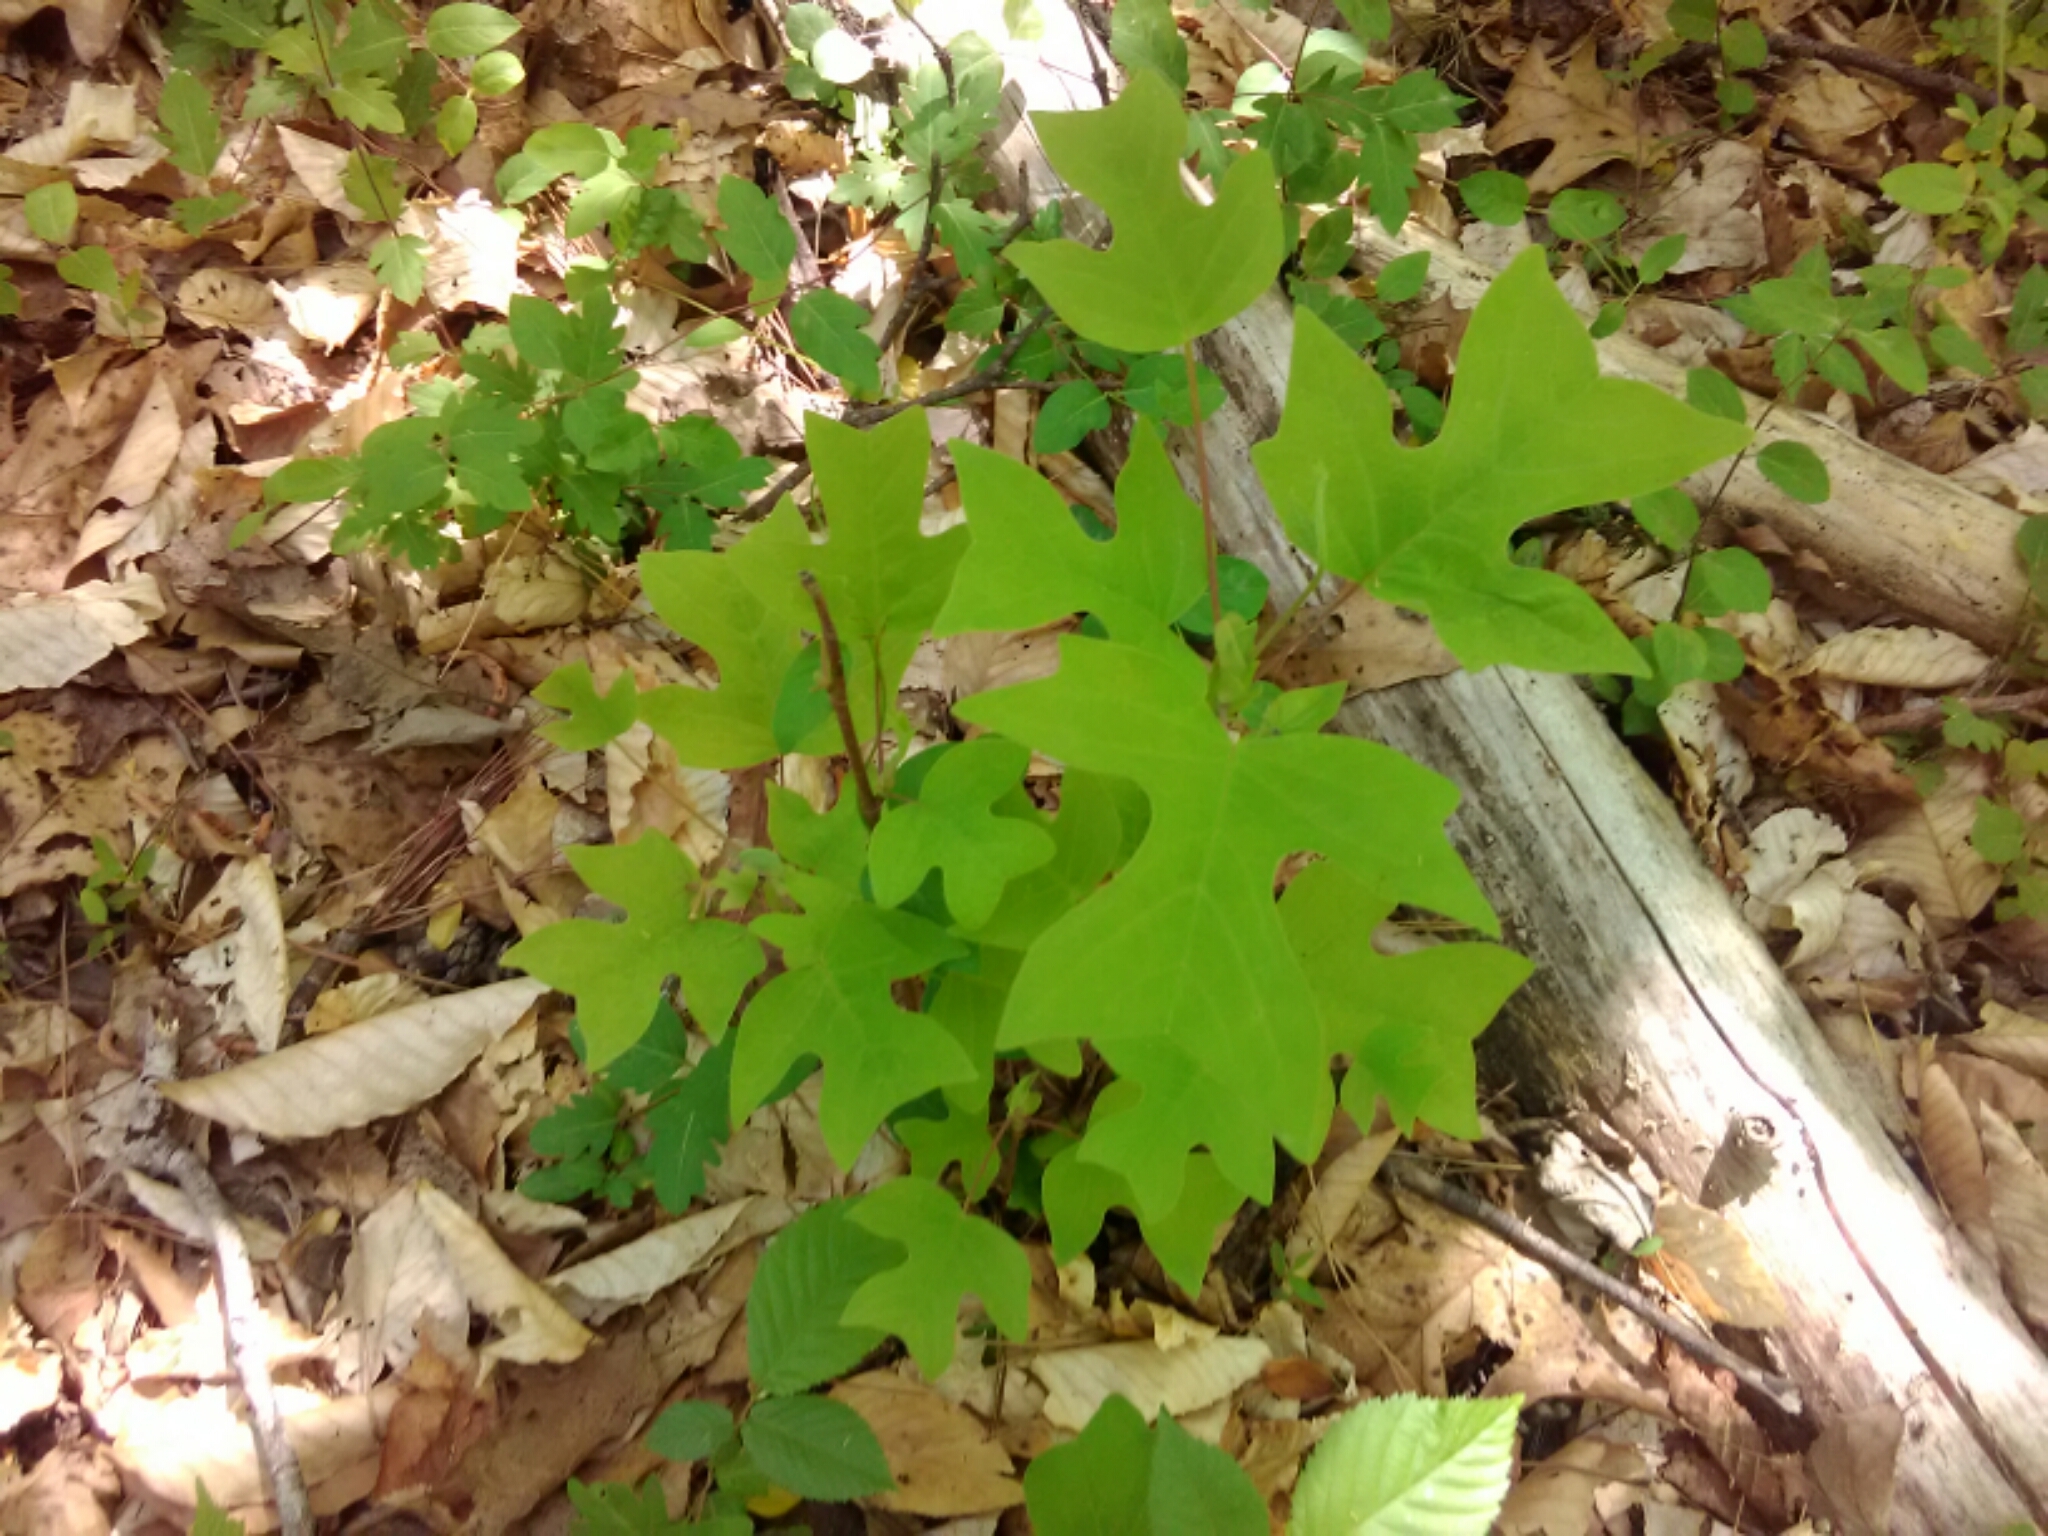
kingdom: Plantae
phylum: Tracheophyta
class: Magnoliopsida
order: Magnoliales
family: Magnoliaceae
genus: Liriodendron
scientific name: Liriodendron tulipifera
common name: Tulip tree
